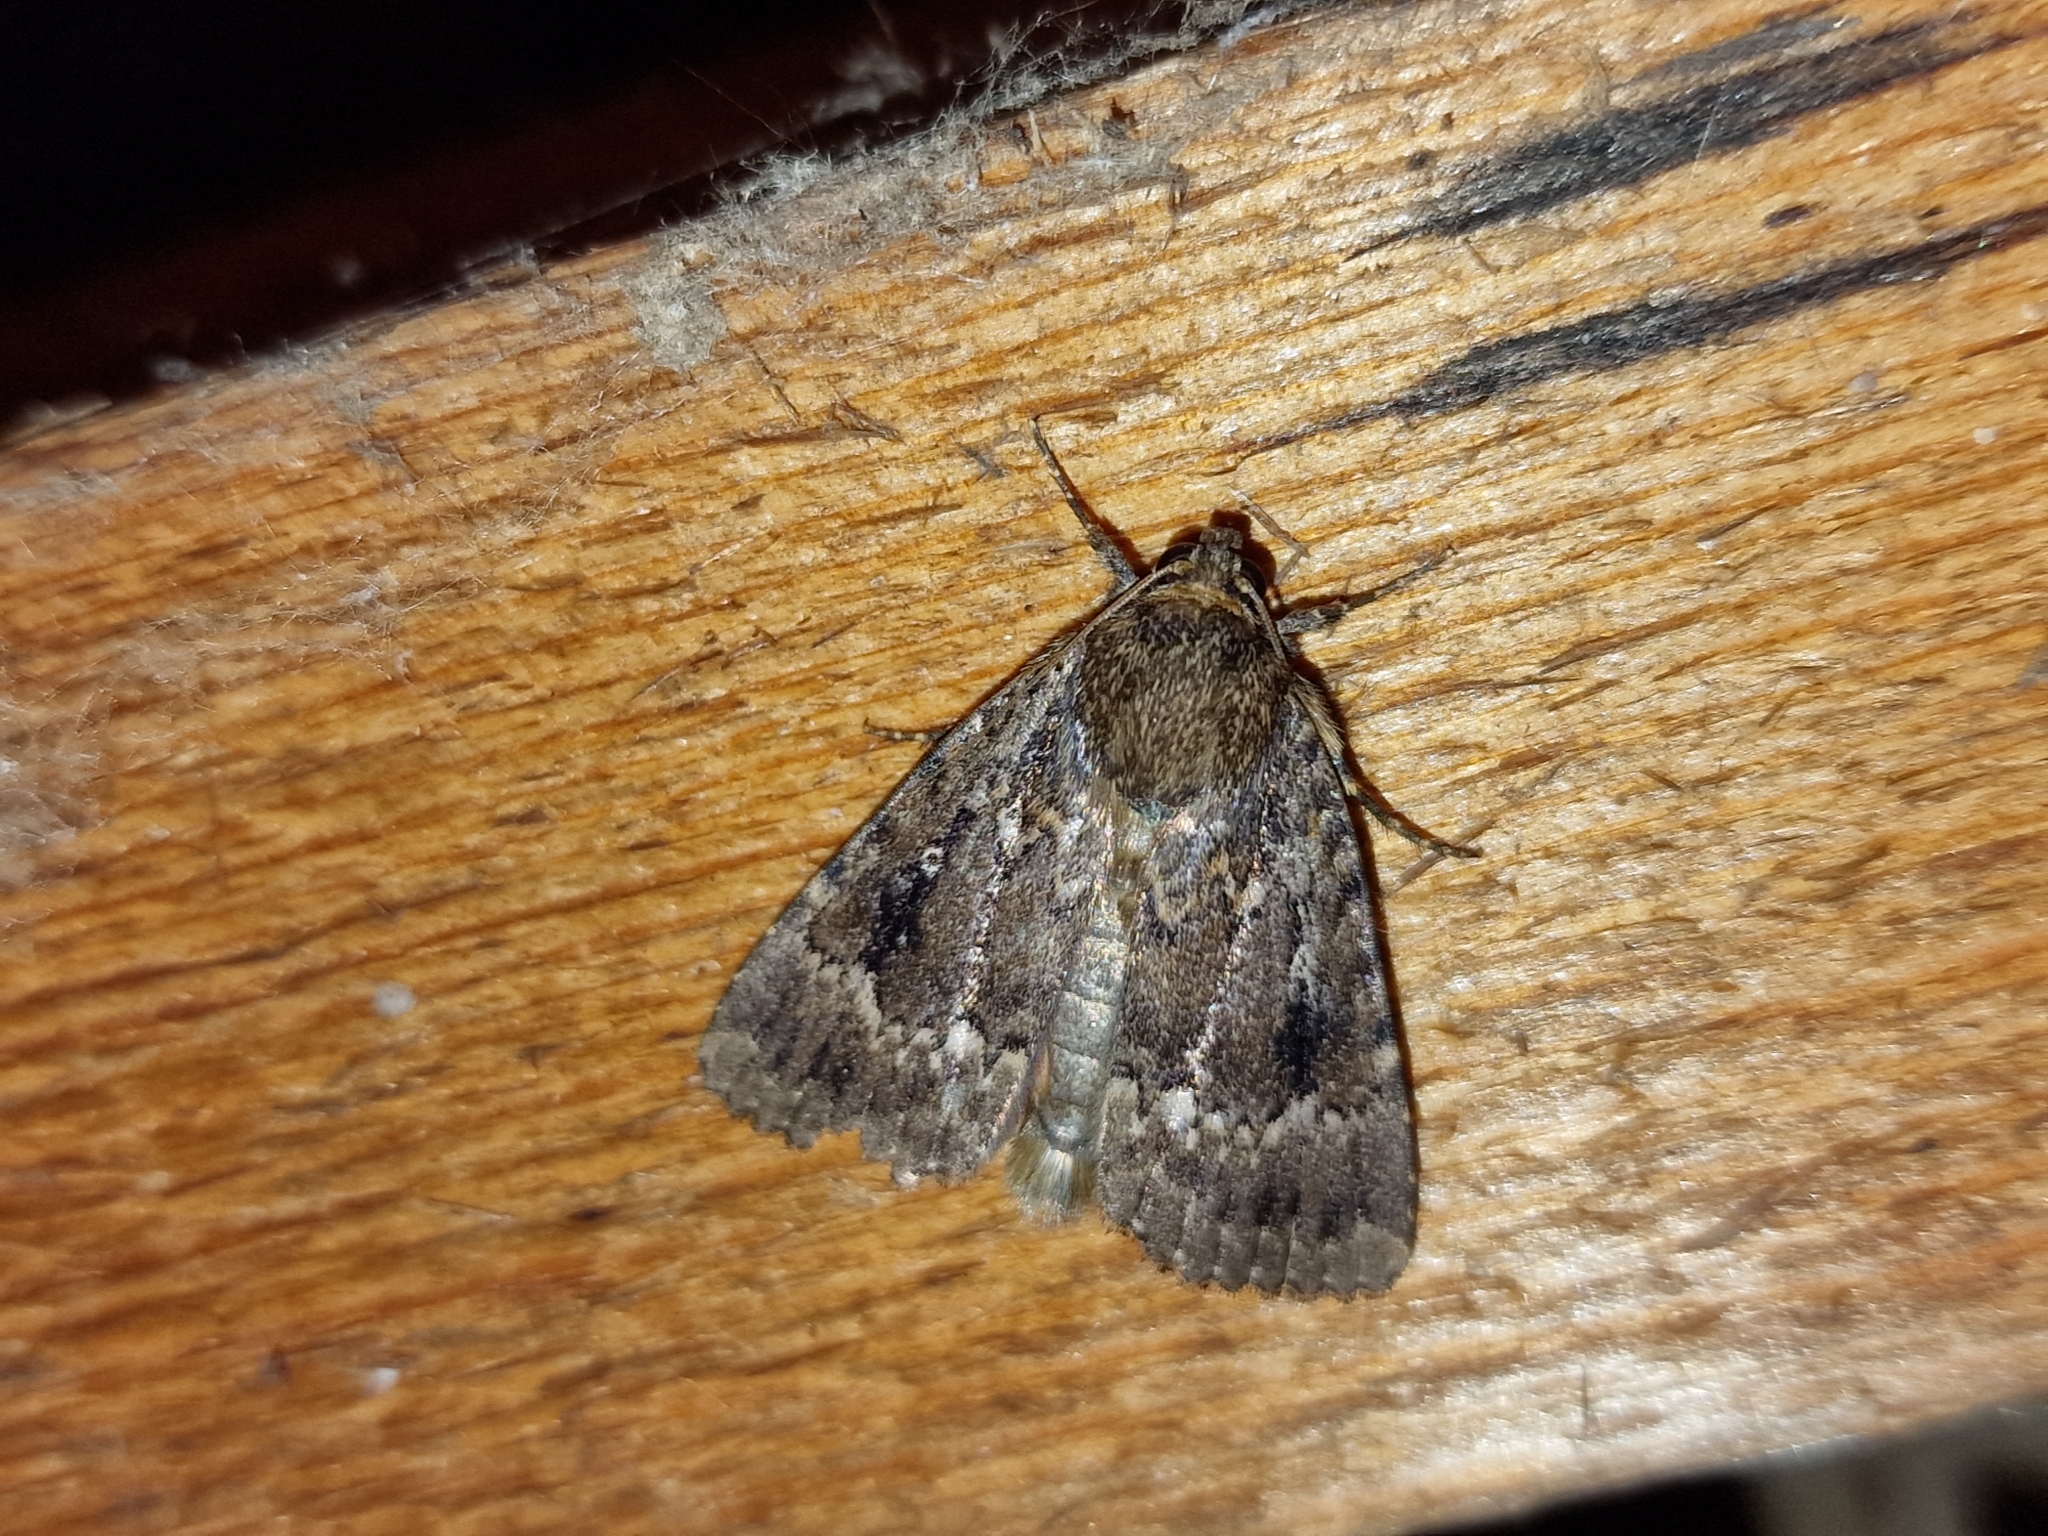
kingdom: Animalia
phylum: Arthropoda
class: Insecta
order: Lepidoptera
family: Noctuidae
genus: Amphipyra
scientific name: Amphipyra pyramidea
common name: Copper underwing
